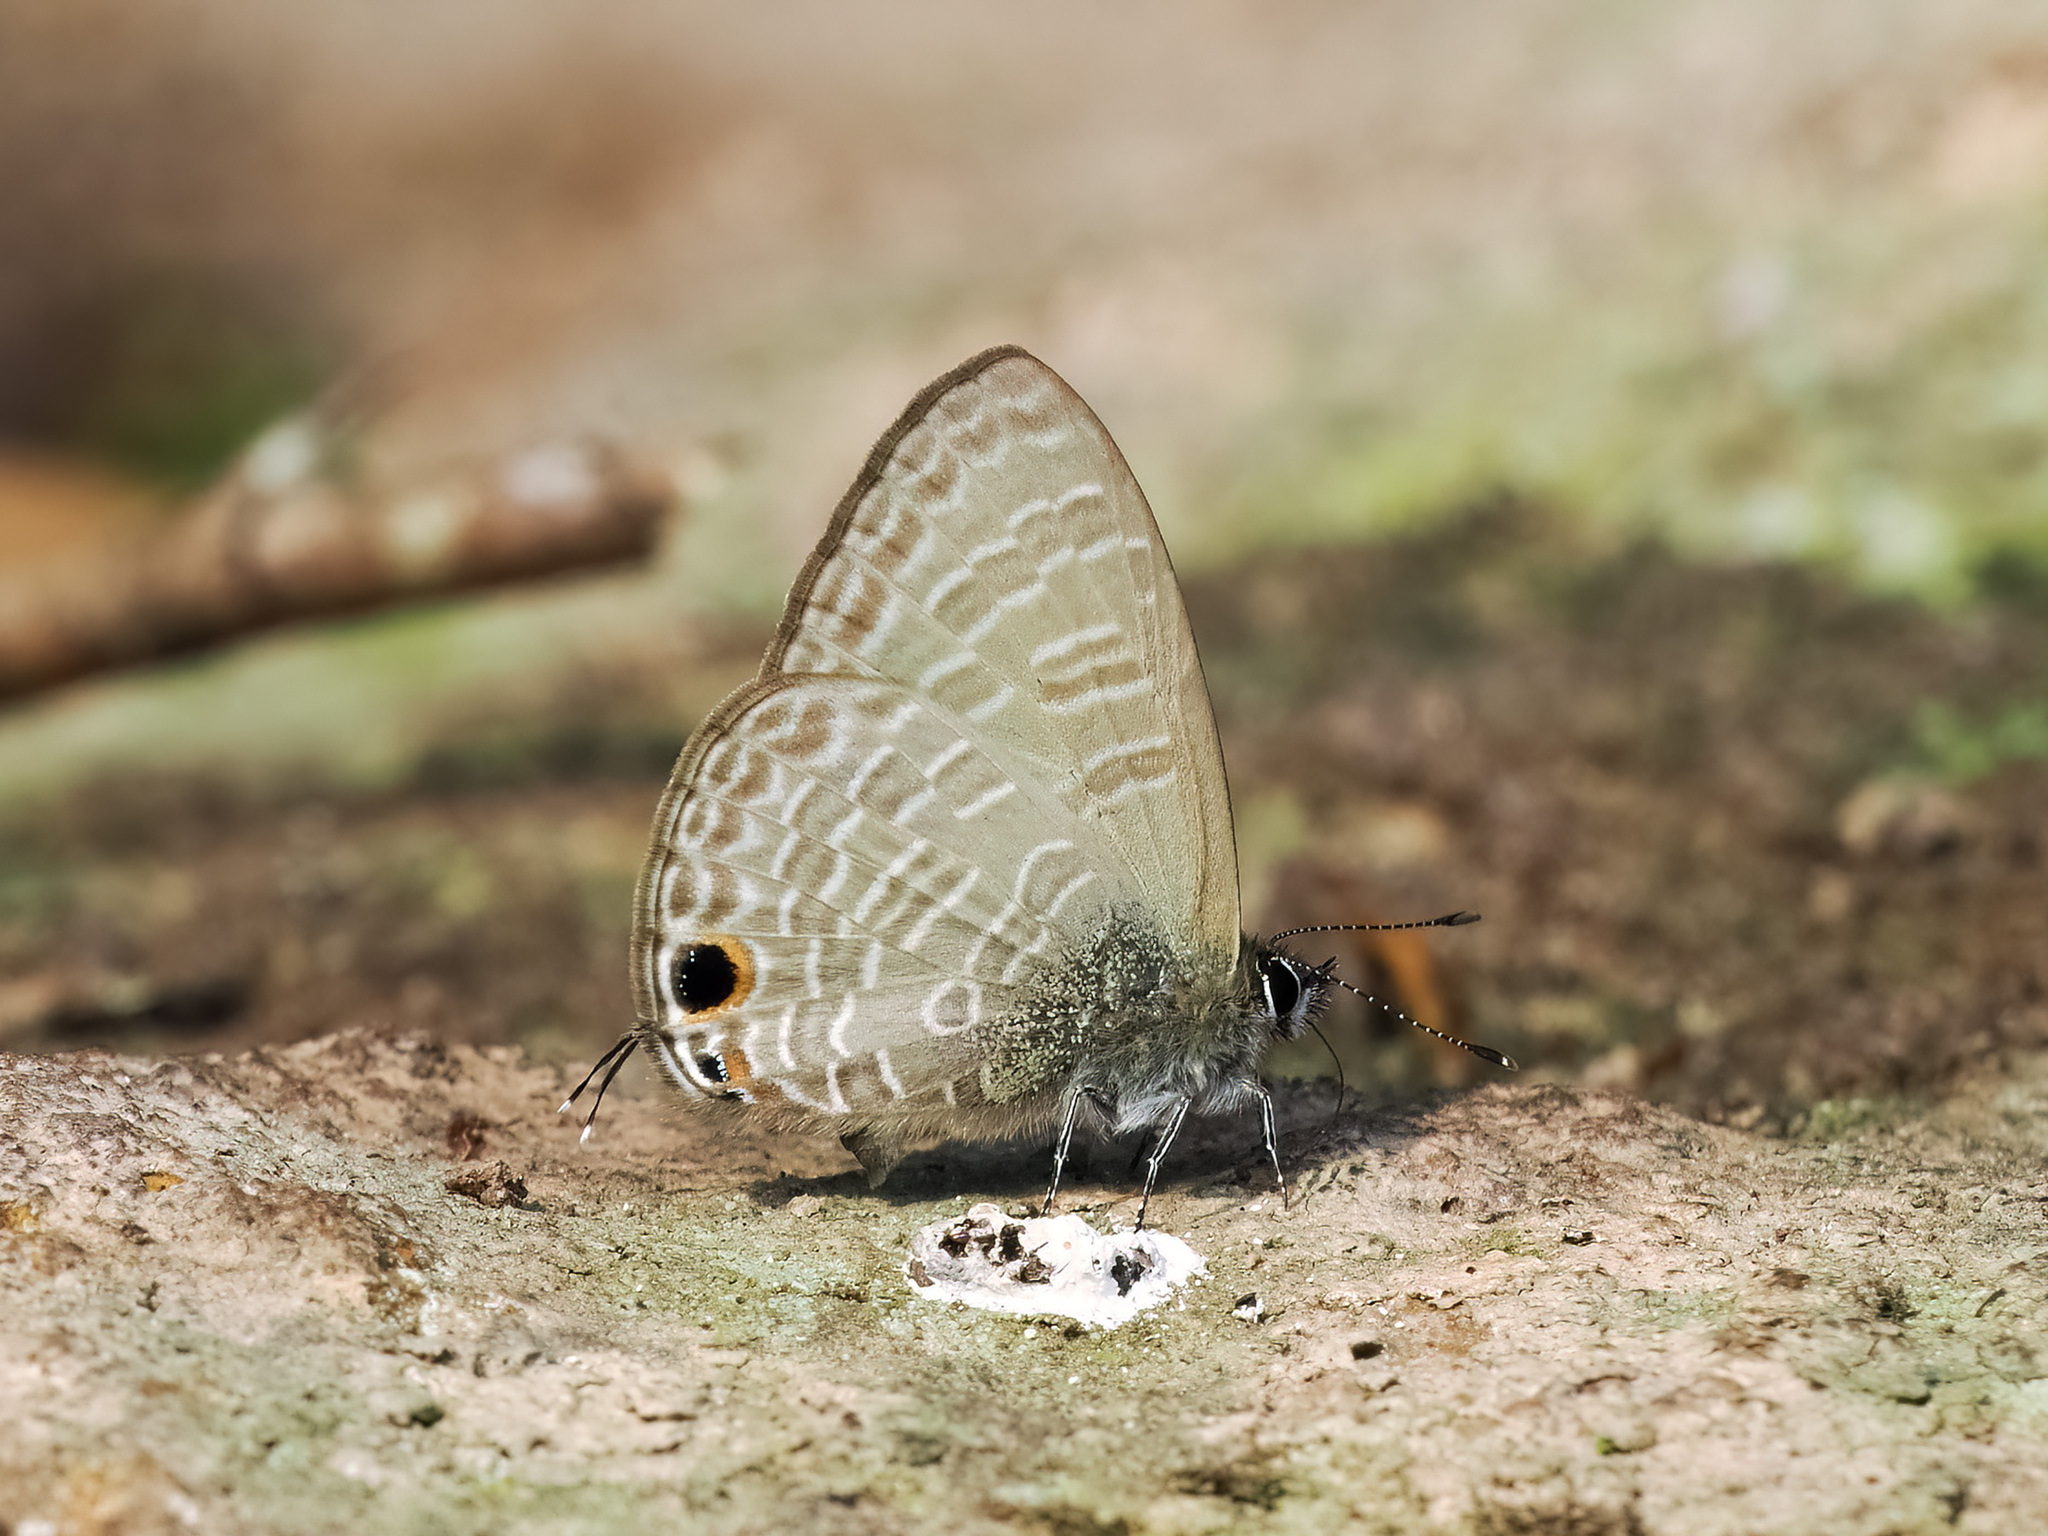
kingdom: Animalia
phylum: Arthropoda
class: Insecta
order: Lepidoptera
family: Lycaenidae
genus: Nacaduba
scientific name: Nacaduba beroe
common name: Opaque sixline blue
